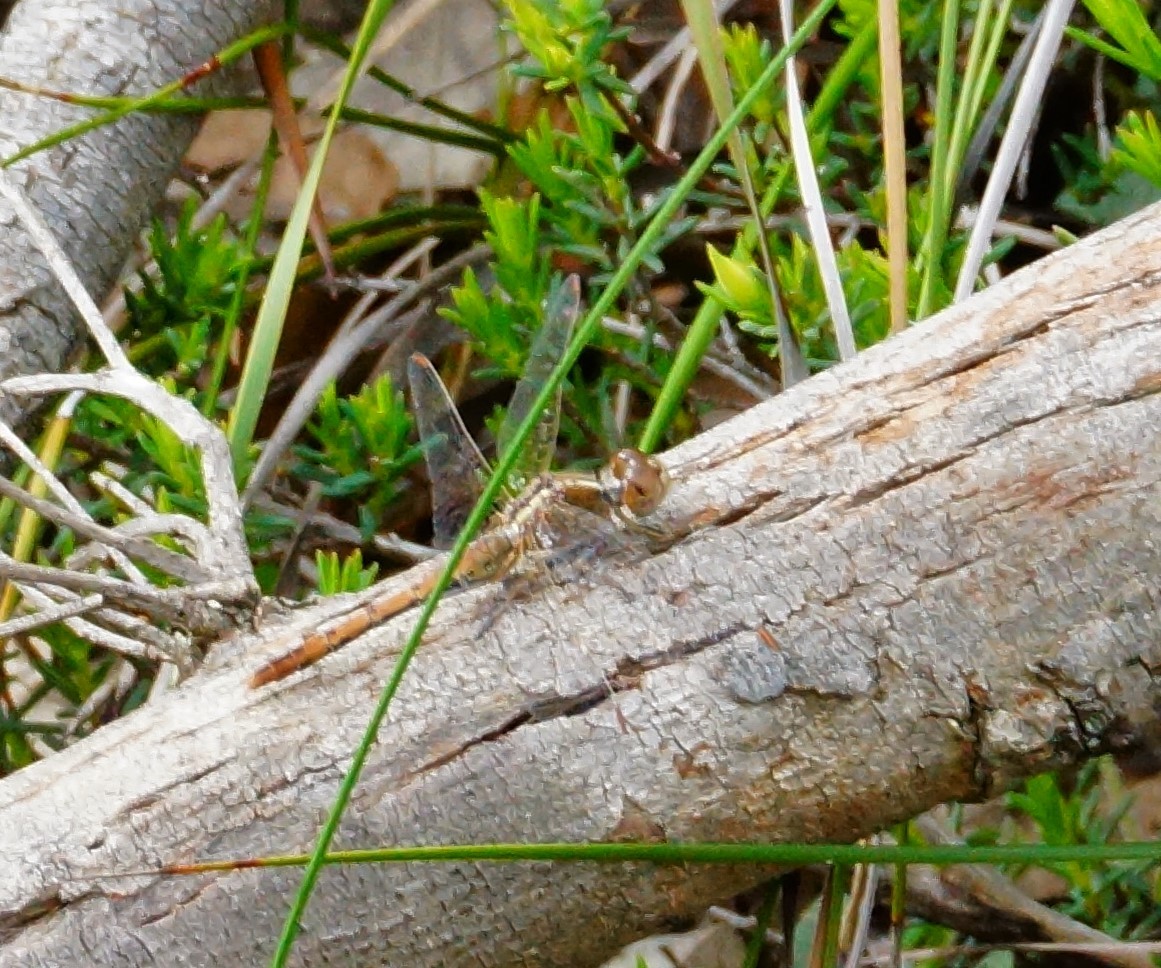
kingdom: Animalia
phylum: Arthropoda
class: Insecta
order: Odonata
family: Libellulidae
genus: Diplacodes
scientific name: Diplacodes bipunctata
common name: Red percher dragonfly
